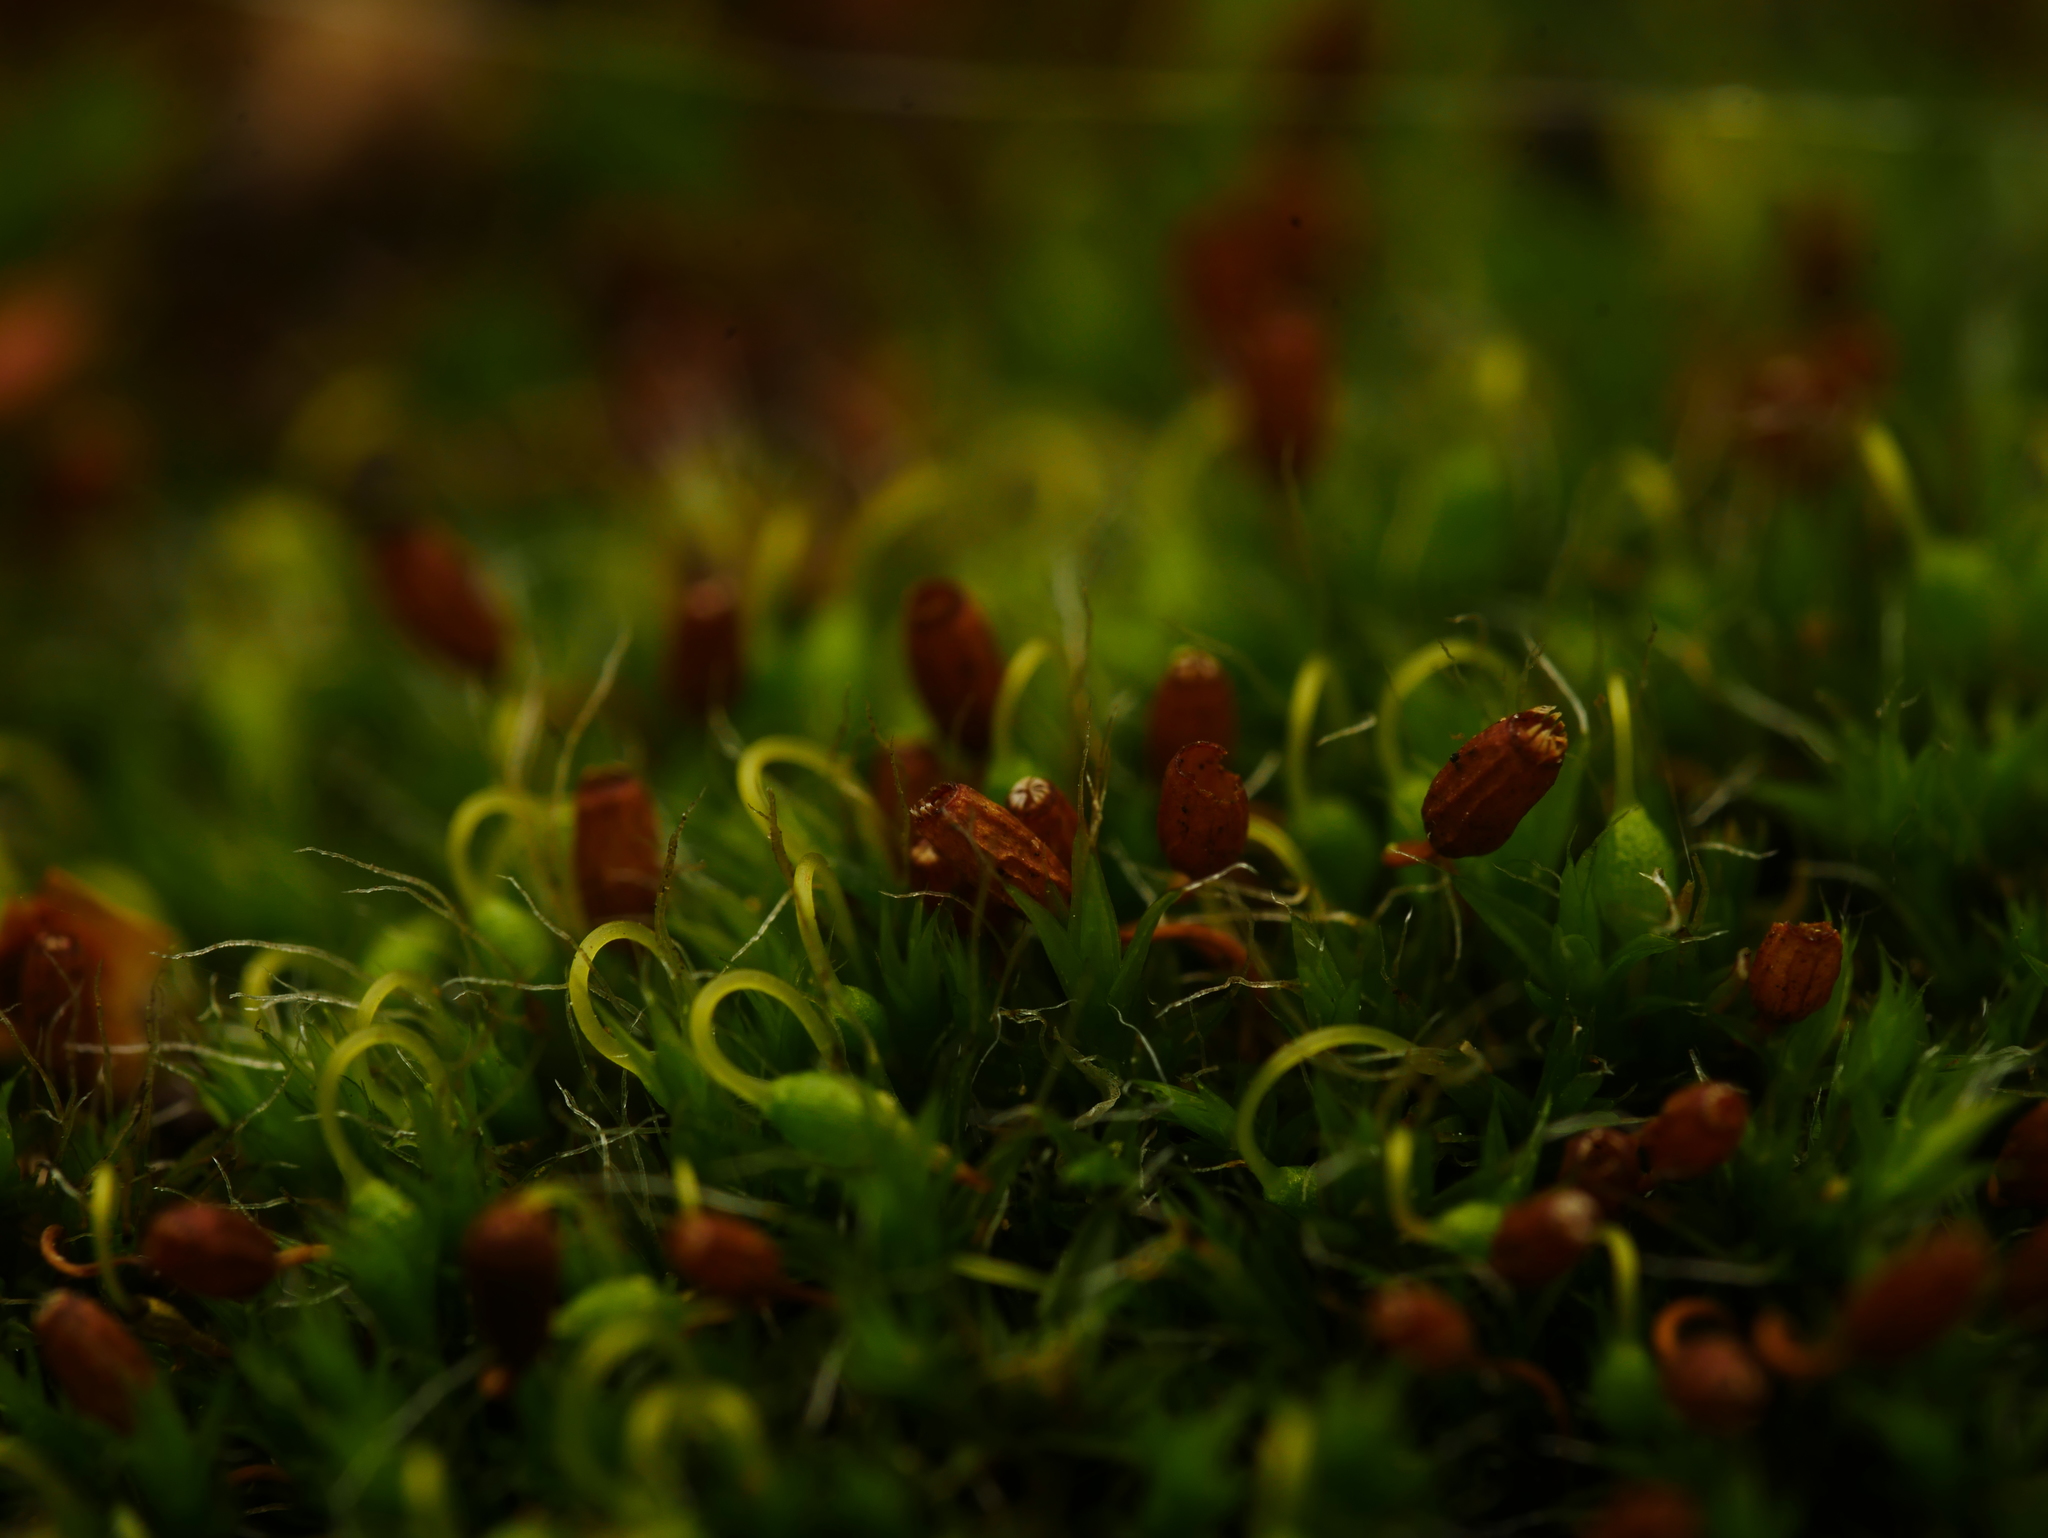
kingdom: Plantae
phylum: Bryophyta
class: Bryopsida
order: Grimmiales
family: Grimmiaceae
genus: Grimmia
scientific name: Grimmia pulvinata
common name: Grey-cushioned grimmia
